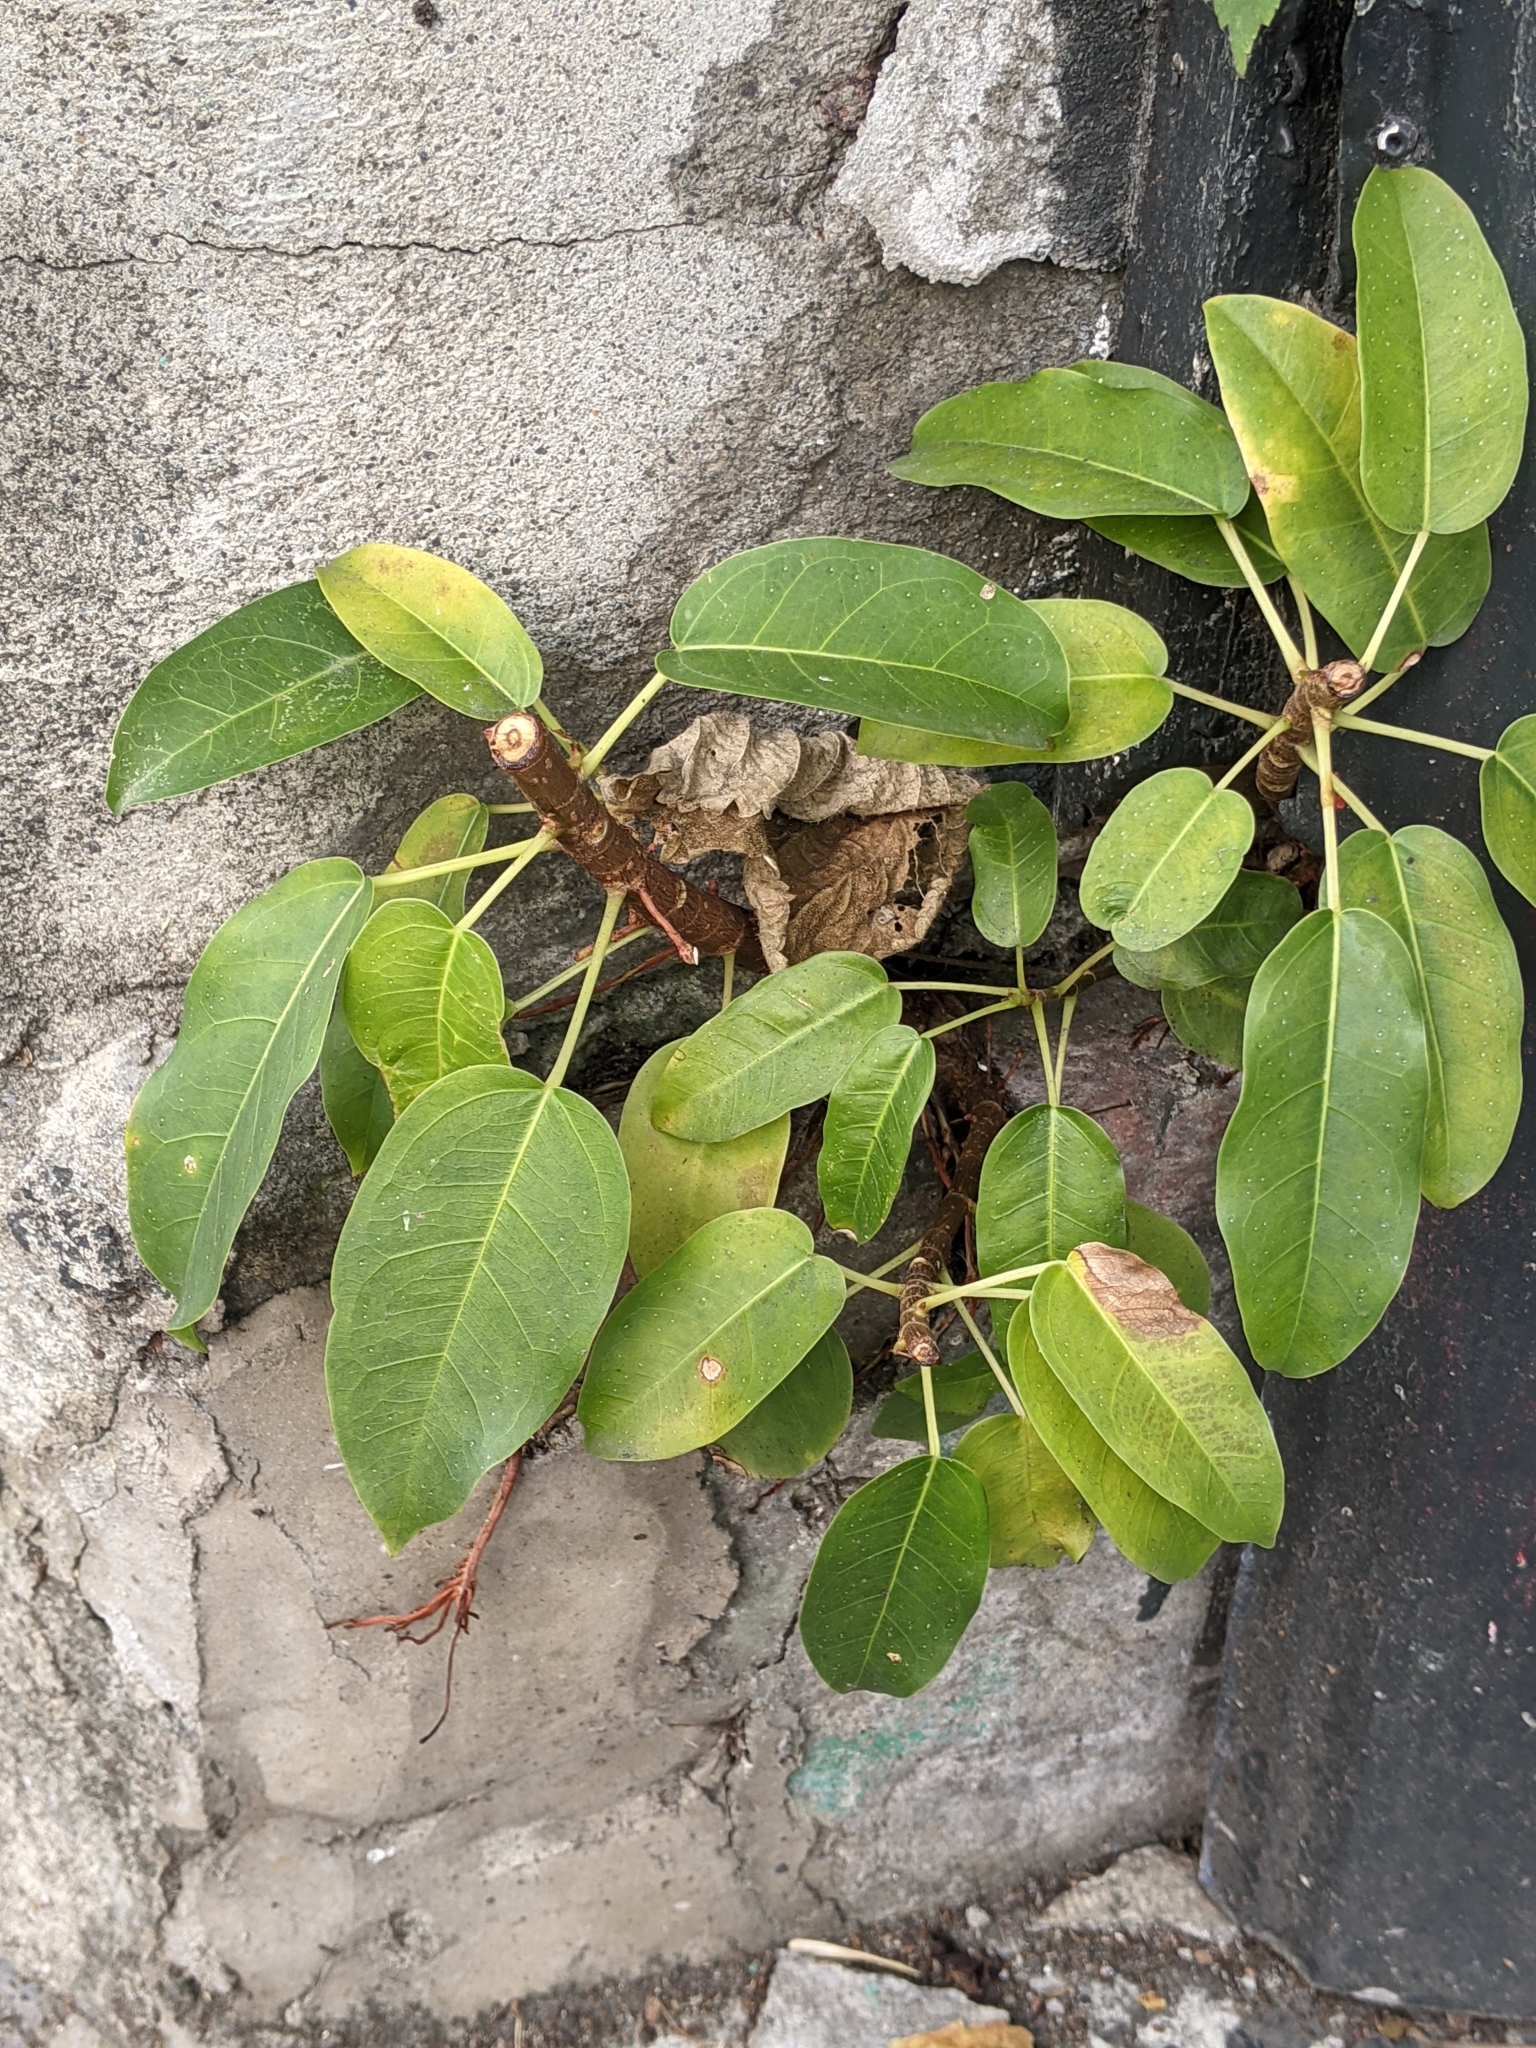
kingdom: Plantae
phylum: Tracheophyta
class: Magnoliopsida
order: Rosales
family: Moraceae
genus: Ficus
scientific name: Ficus subpisocarpa
